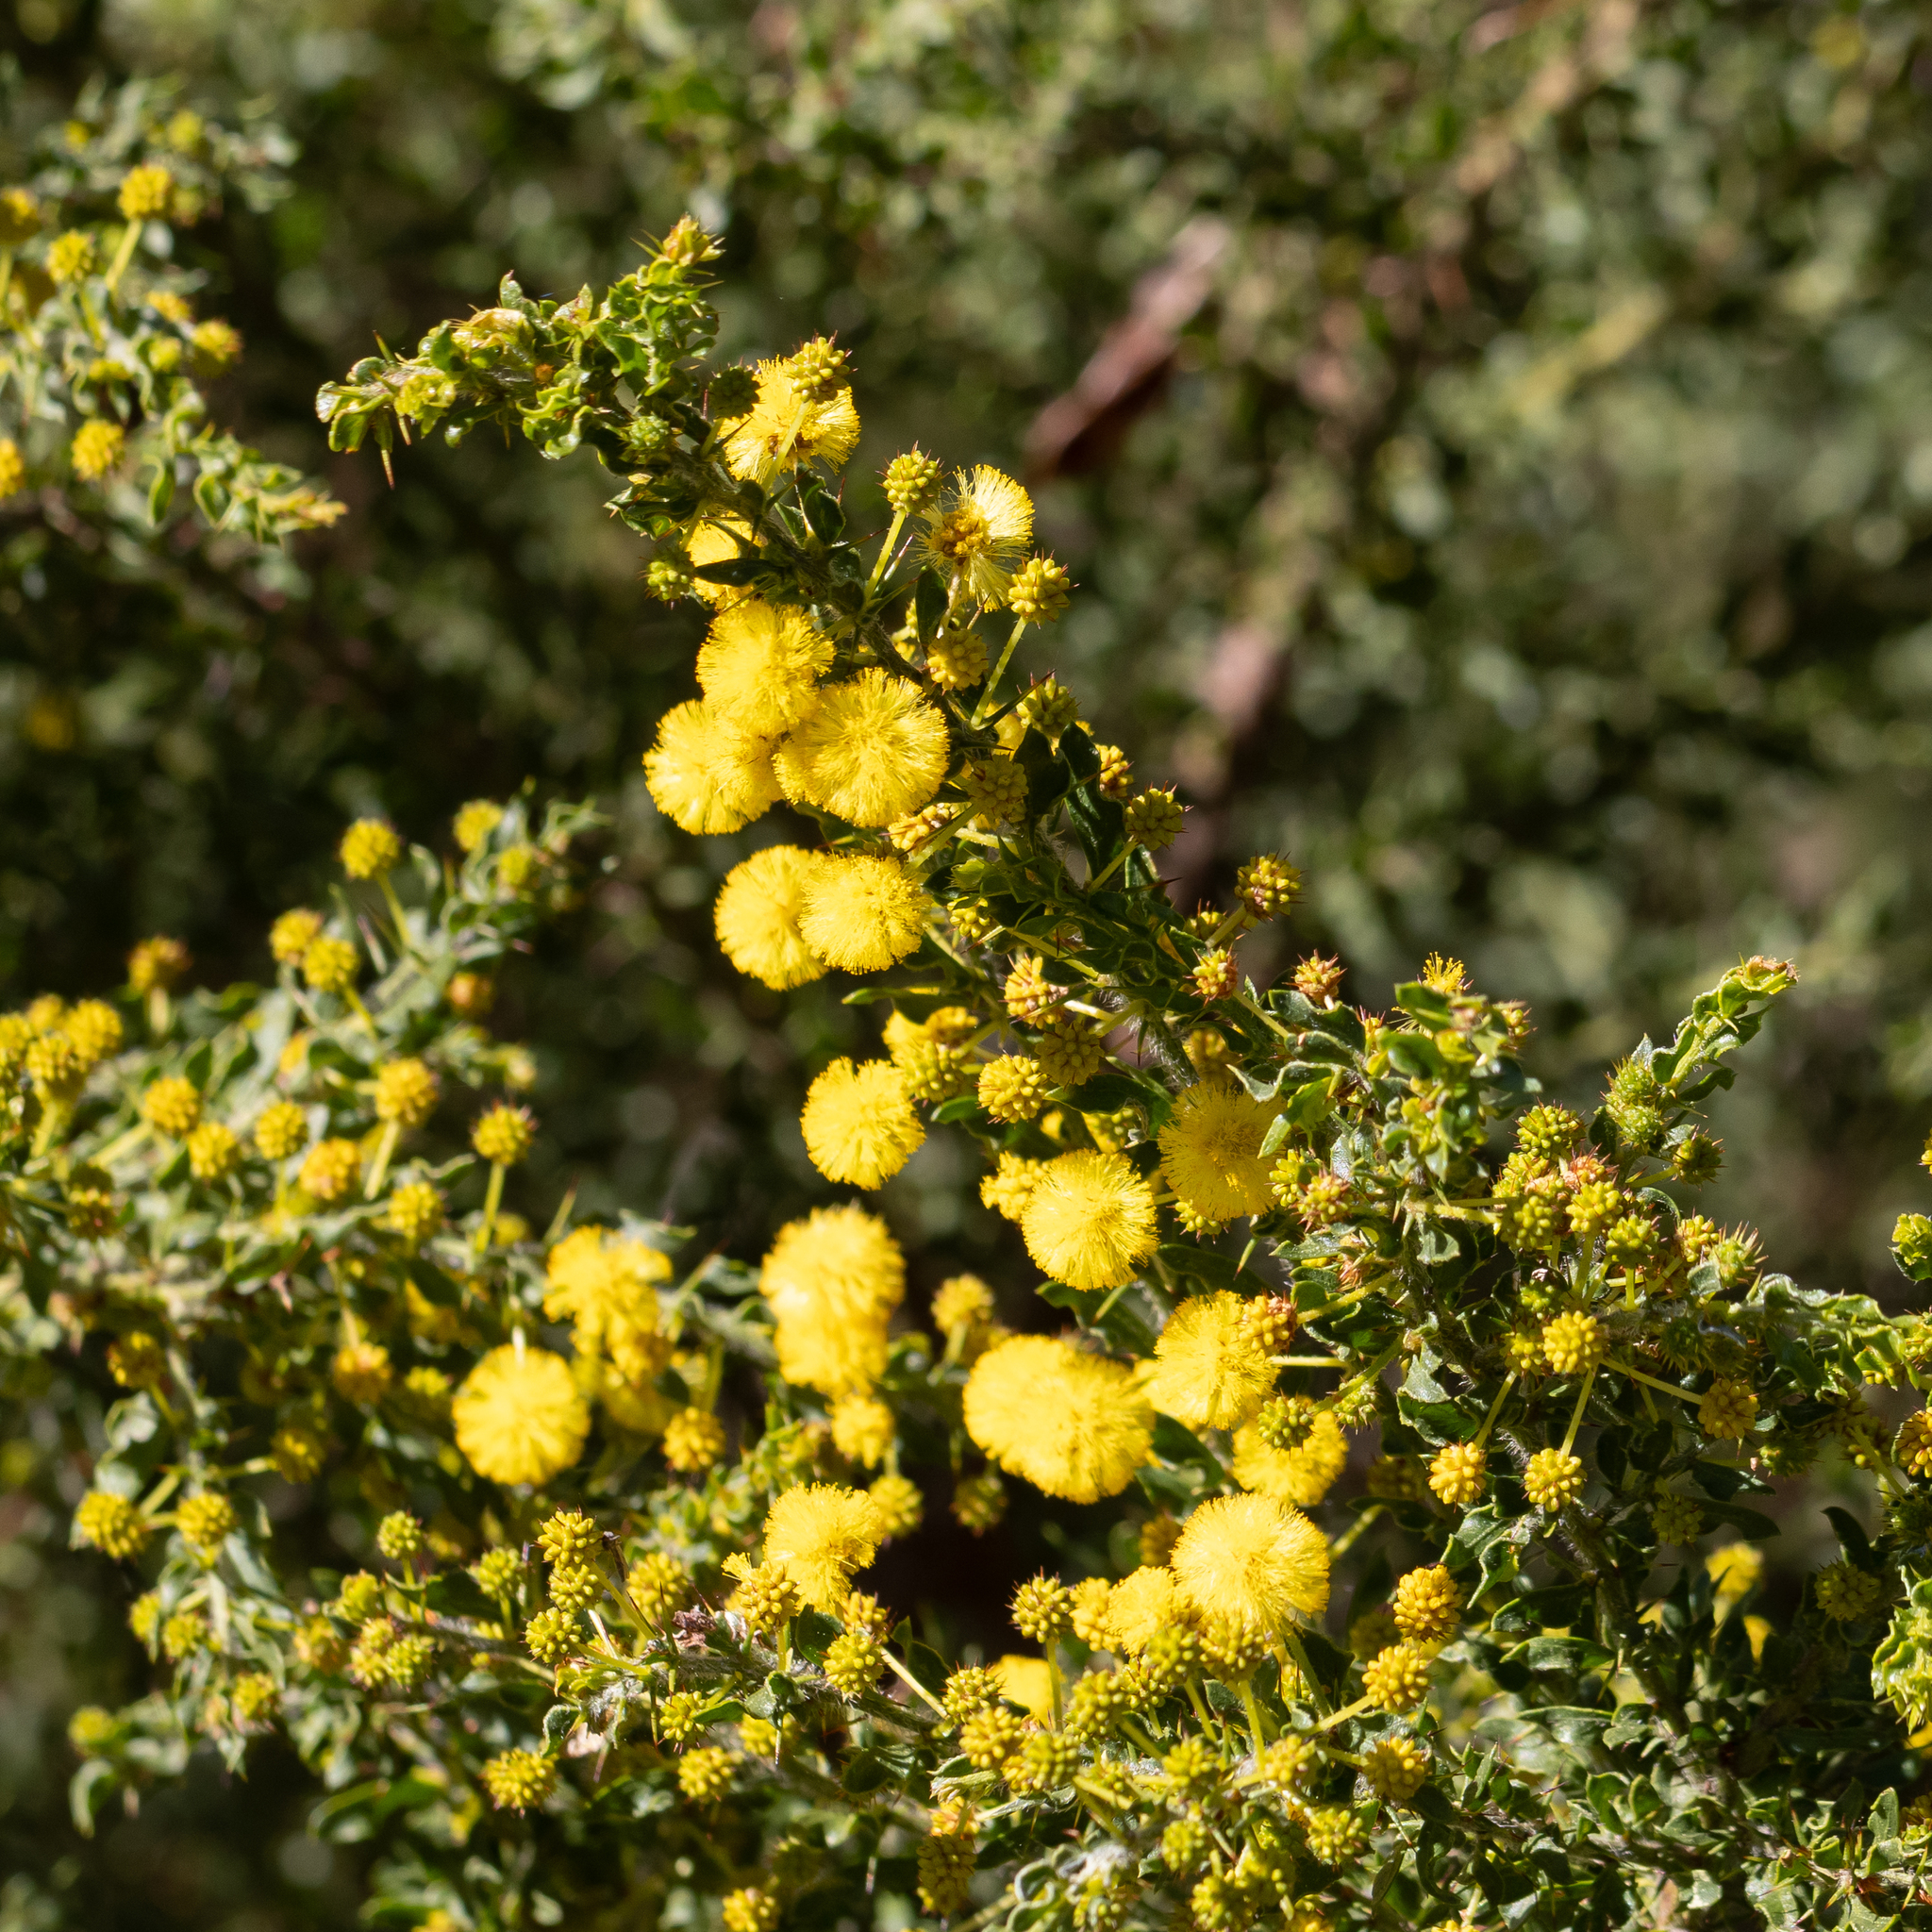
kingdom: Plantae
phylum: Tracheophyta
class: Magnoliopsida
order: Fabales
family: Fabaceae
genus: Acacia
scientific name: Acacia paradoxa
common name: Paradox acacia
